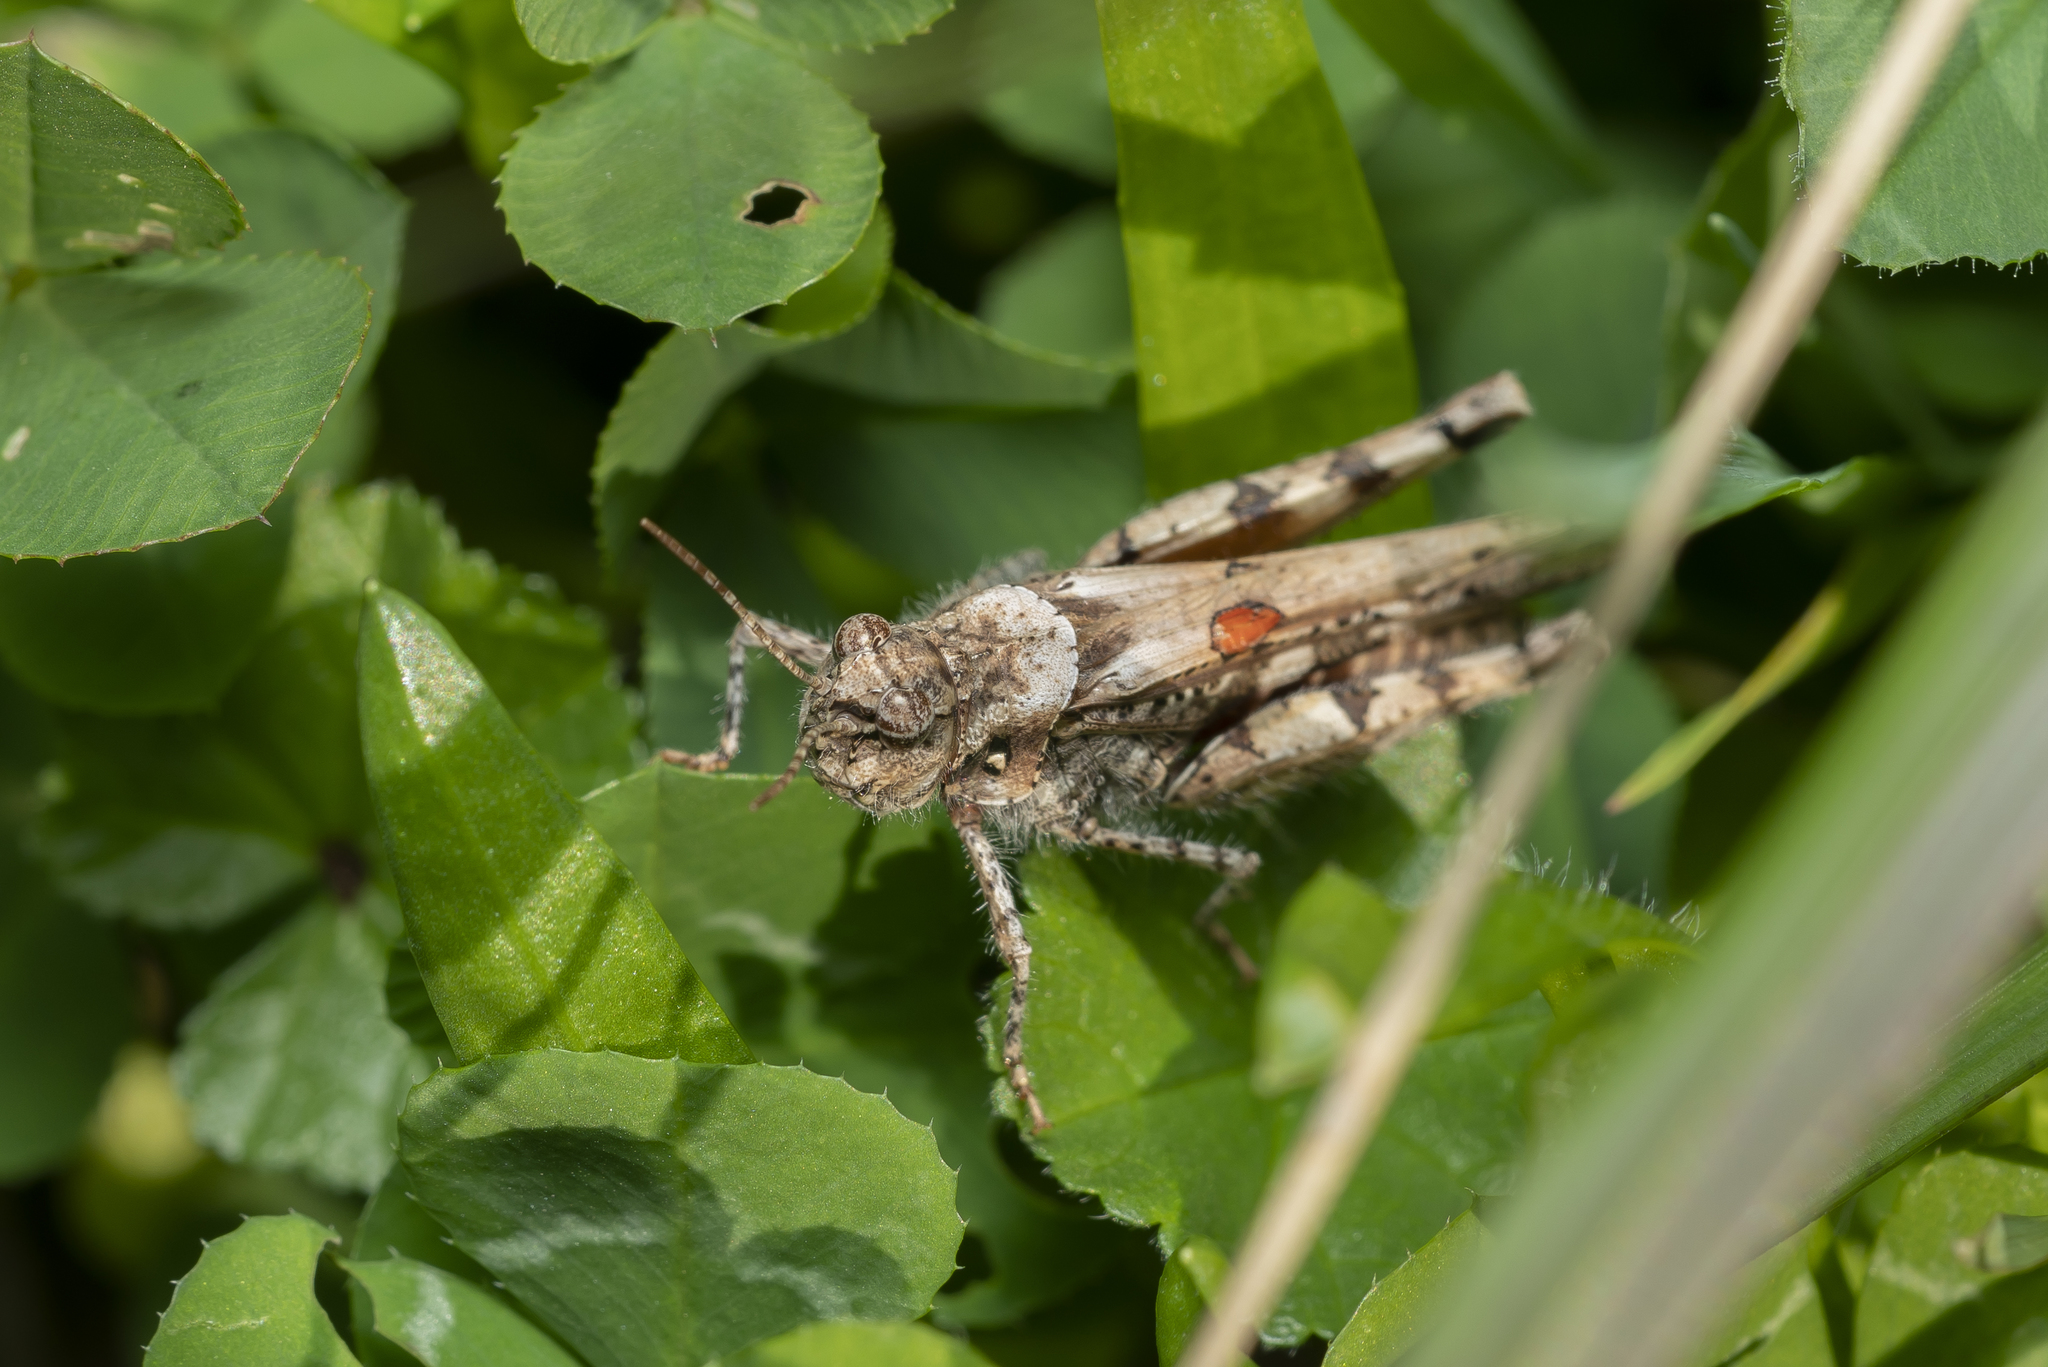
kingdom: Animalia
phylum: Arthropoda
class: Insecta
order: Orthoptera
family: Acrididae
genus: Acrotylus
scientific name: Acrotylus insubricus
